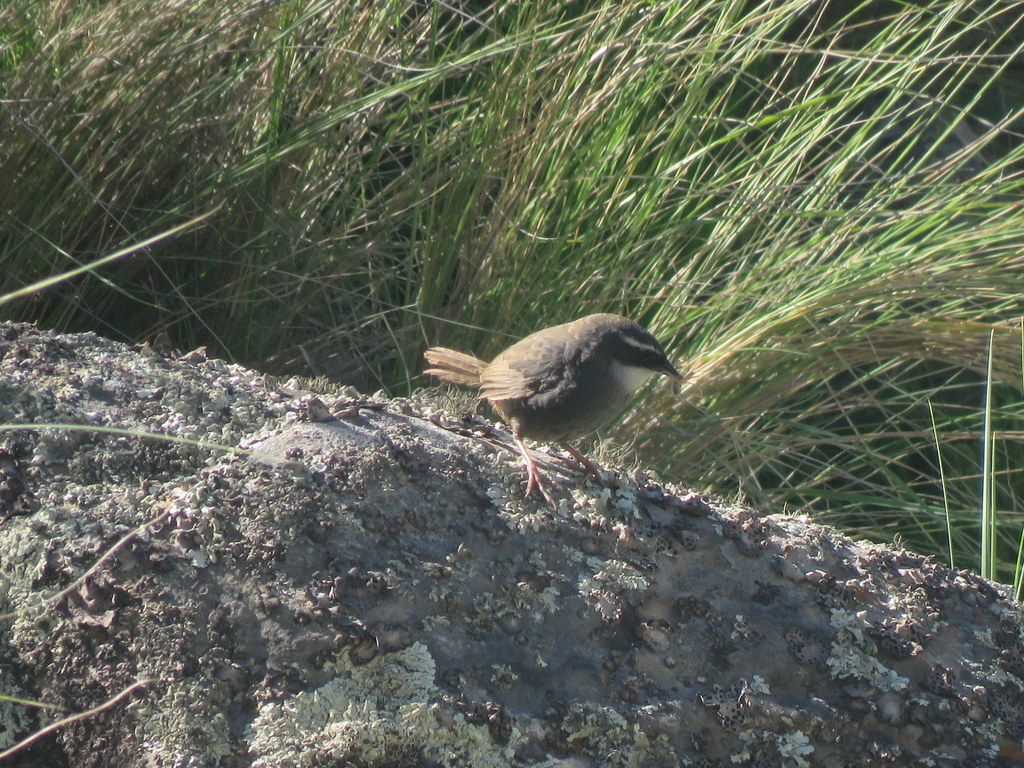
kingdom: Animalia
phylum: Chordata
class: Aves
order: Passeriformes
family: Rhinocryptidae
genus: Scytalopus
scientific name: Scytalopus superciliaris
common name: White-browed tapaculo
